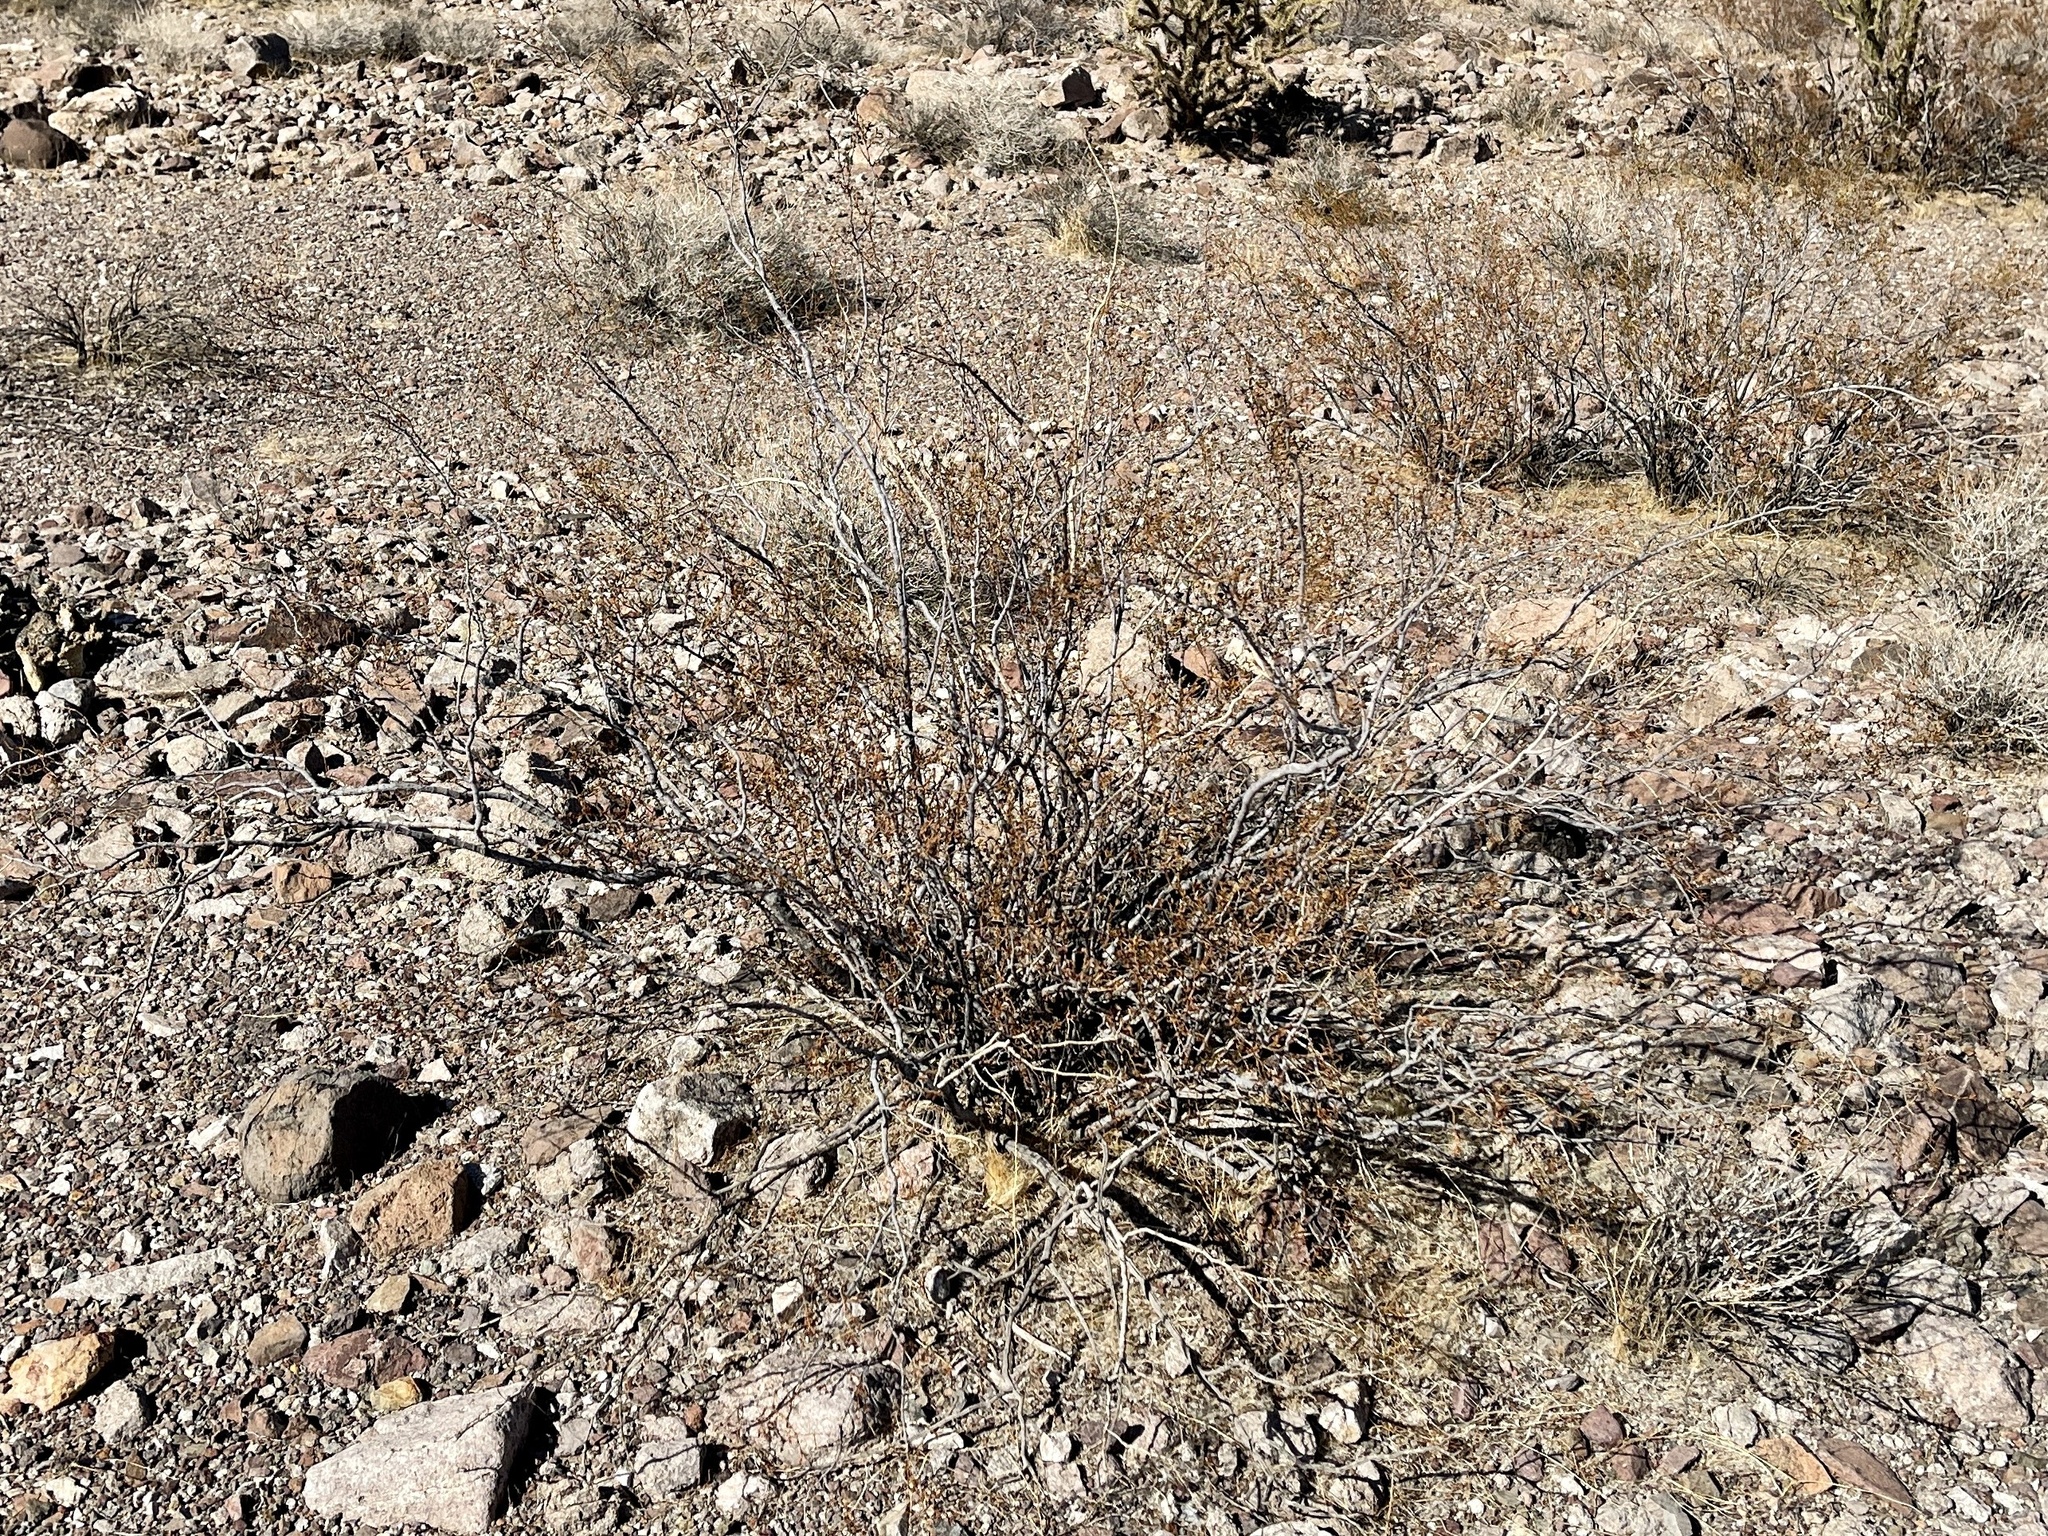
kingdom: Plantae
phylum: Tracheophyta
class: Magnoliopsida
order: Zygophyllales
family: Zygophyllaceae
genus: Larrea
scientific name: Larrea tridentata
